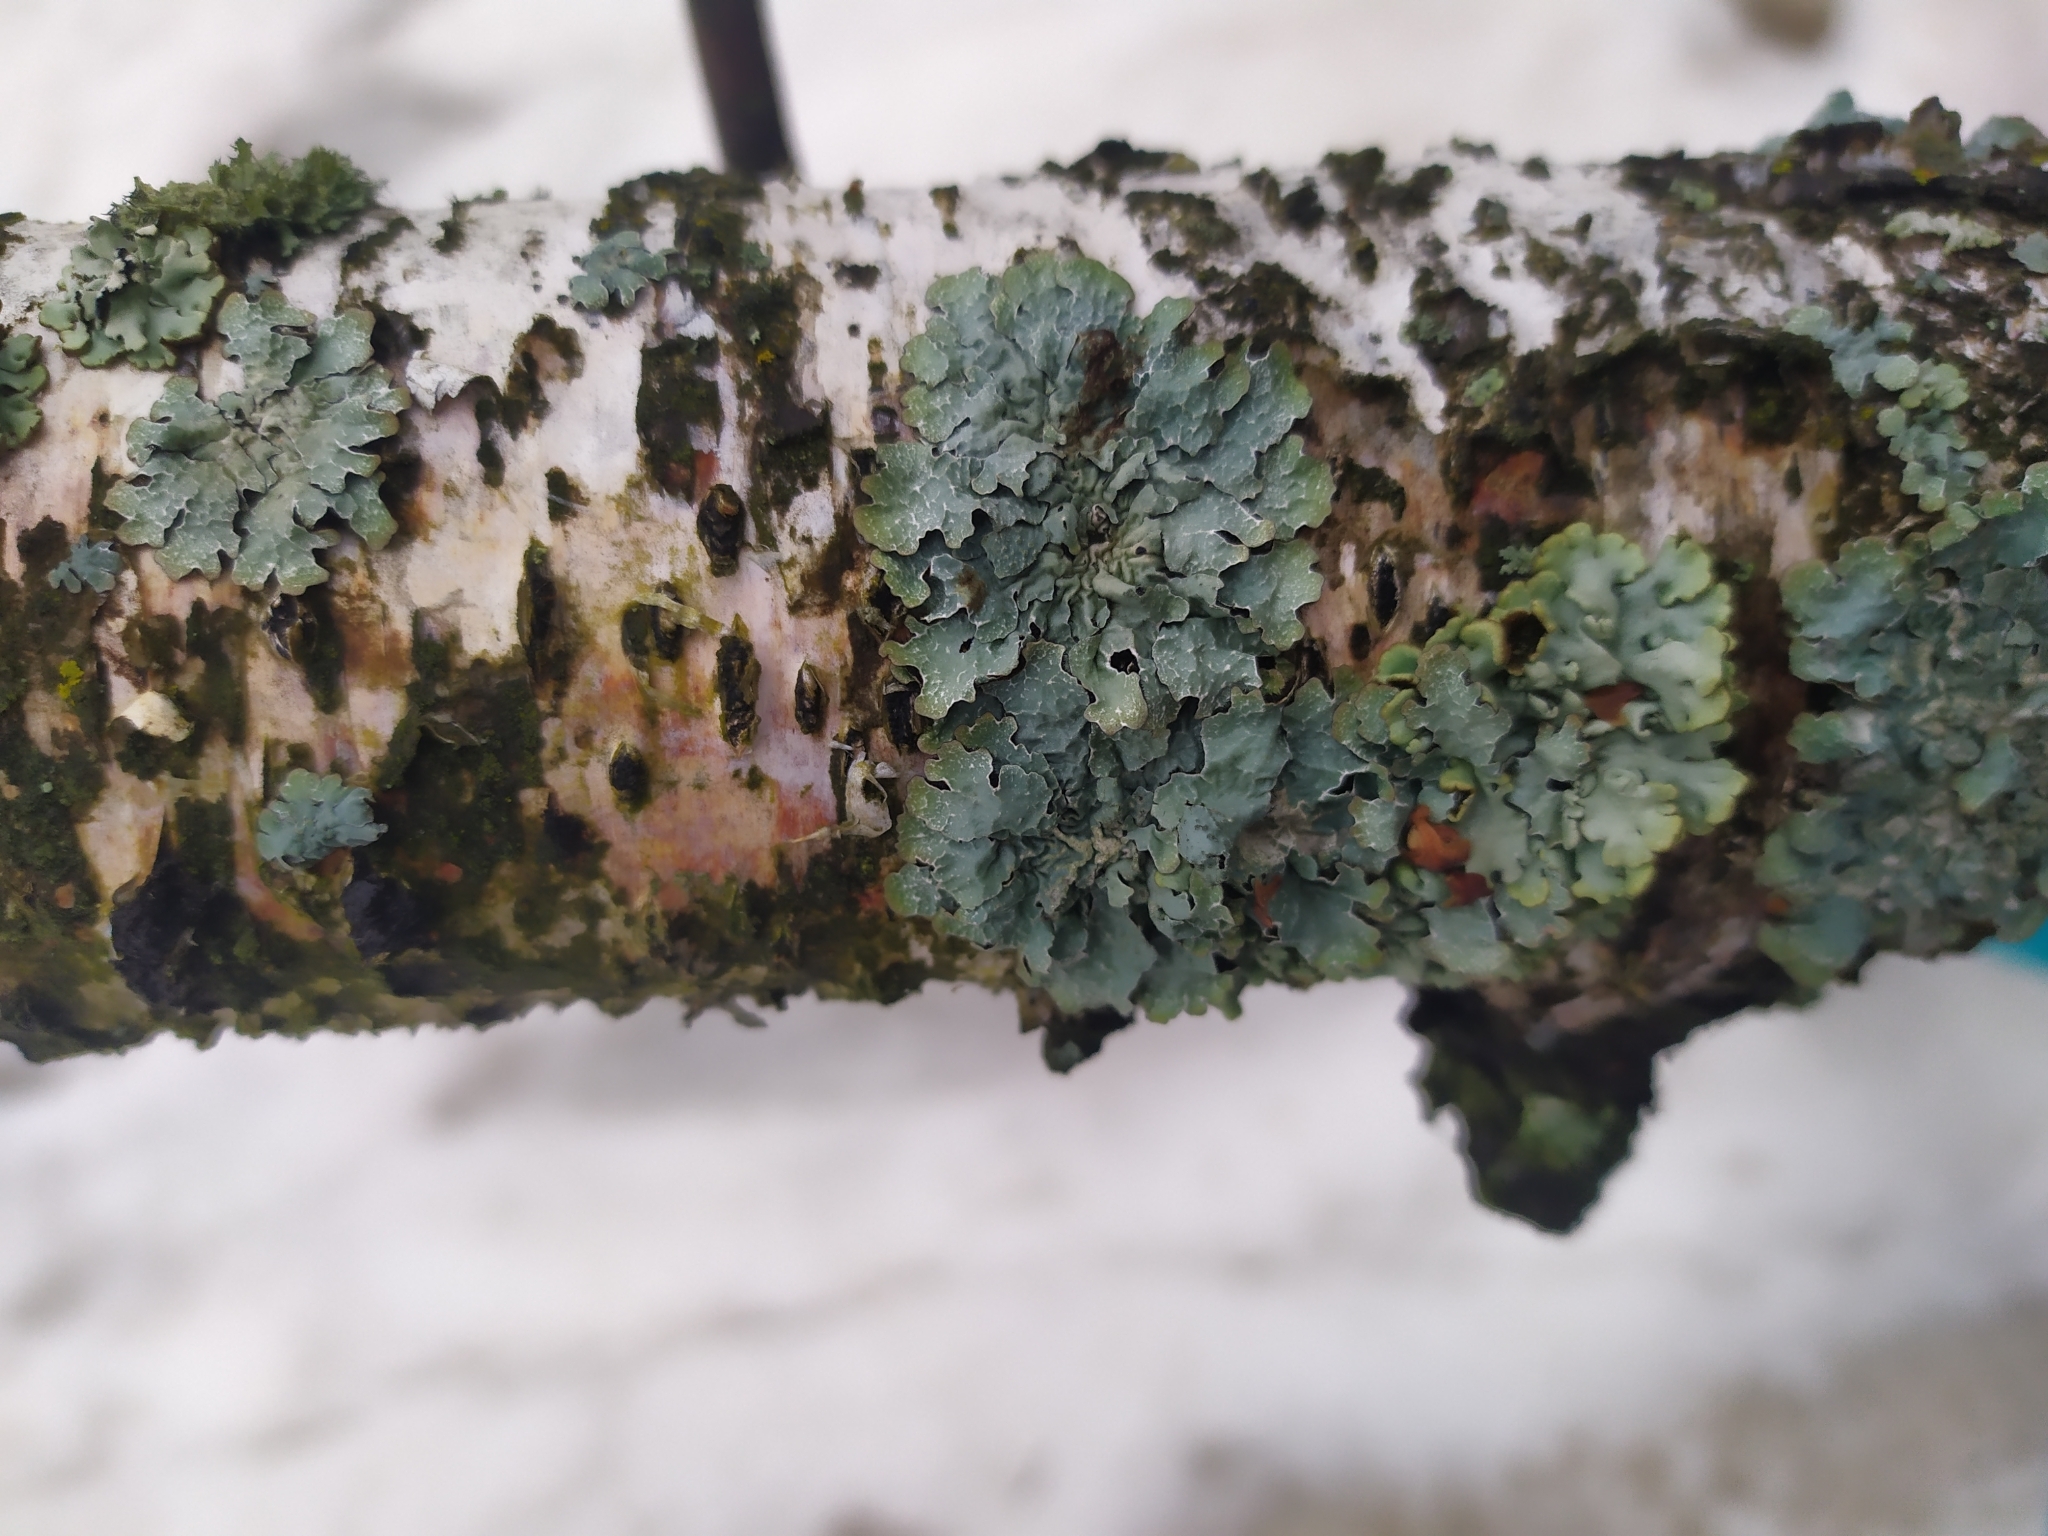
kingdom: Fungi
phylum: Ascomycota
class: Lecanoromycetes
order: Lecanorales
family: Parmeliaceae
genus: Parmelia
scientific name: Parmelia sulcata
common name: Netted shield lichen
